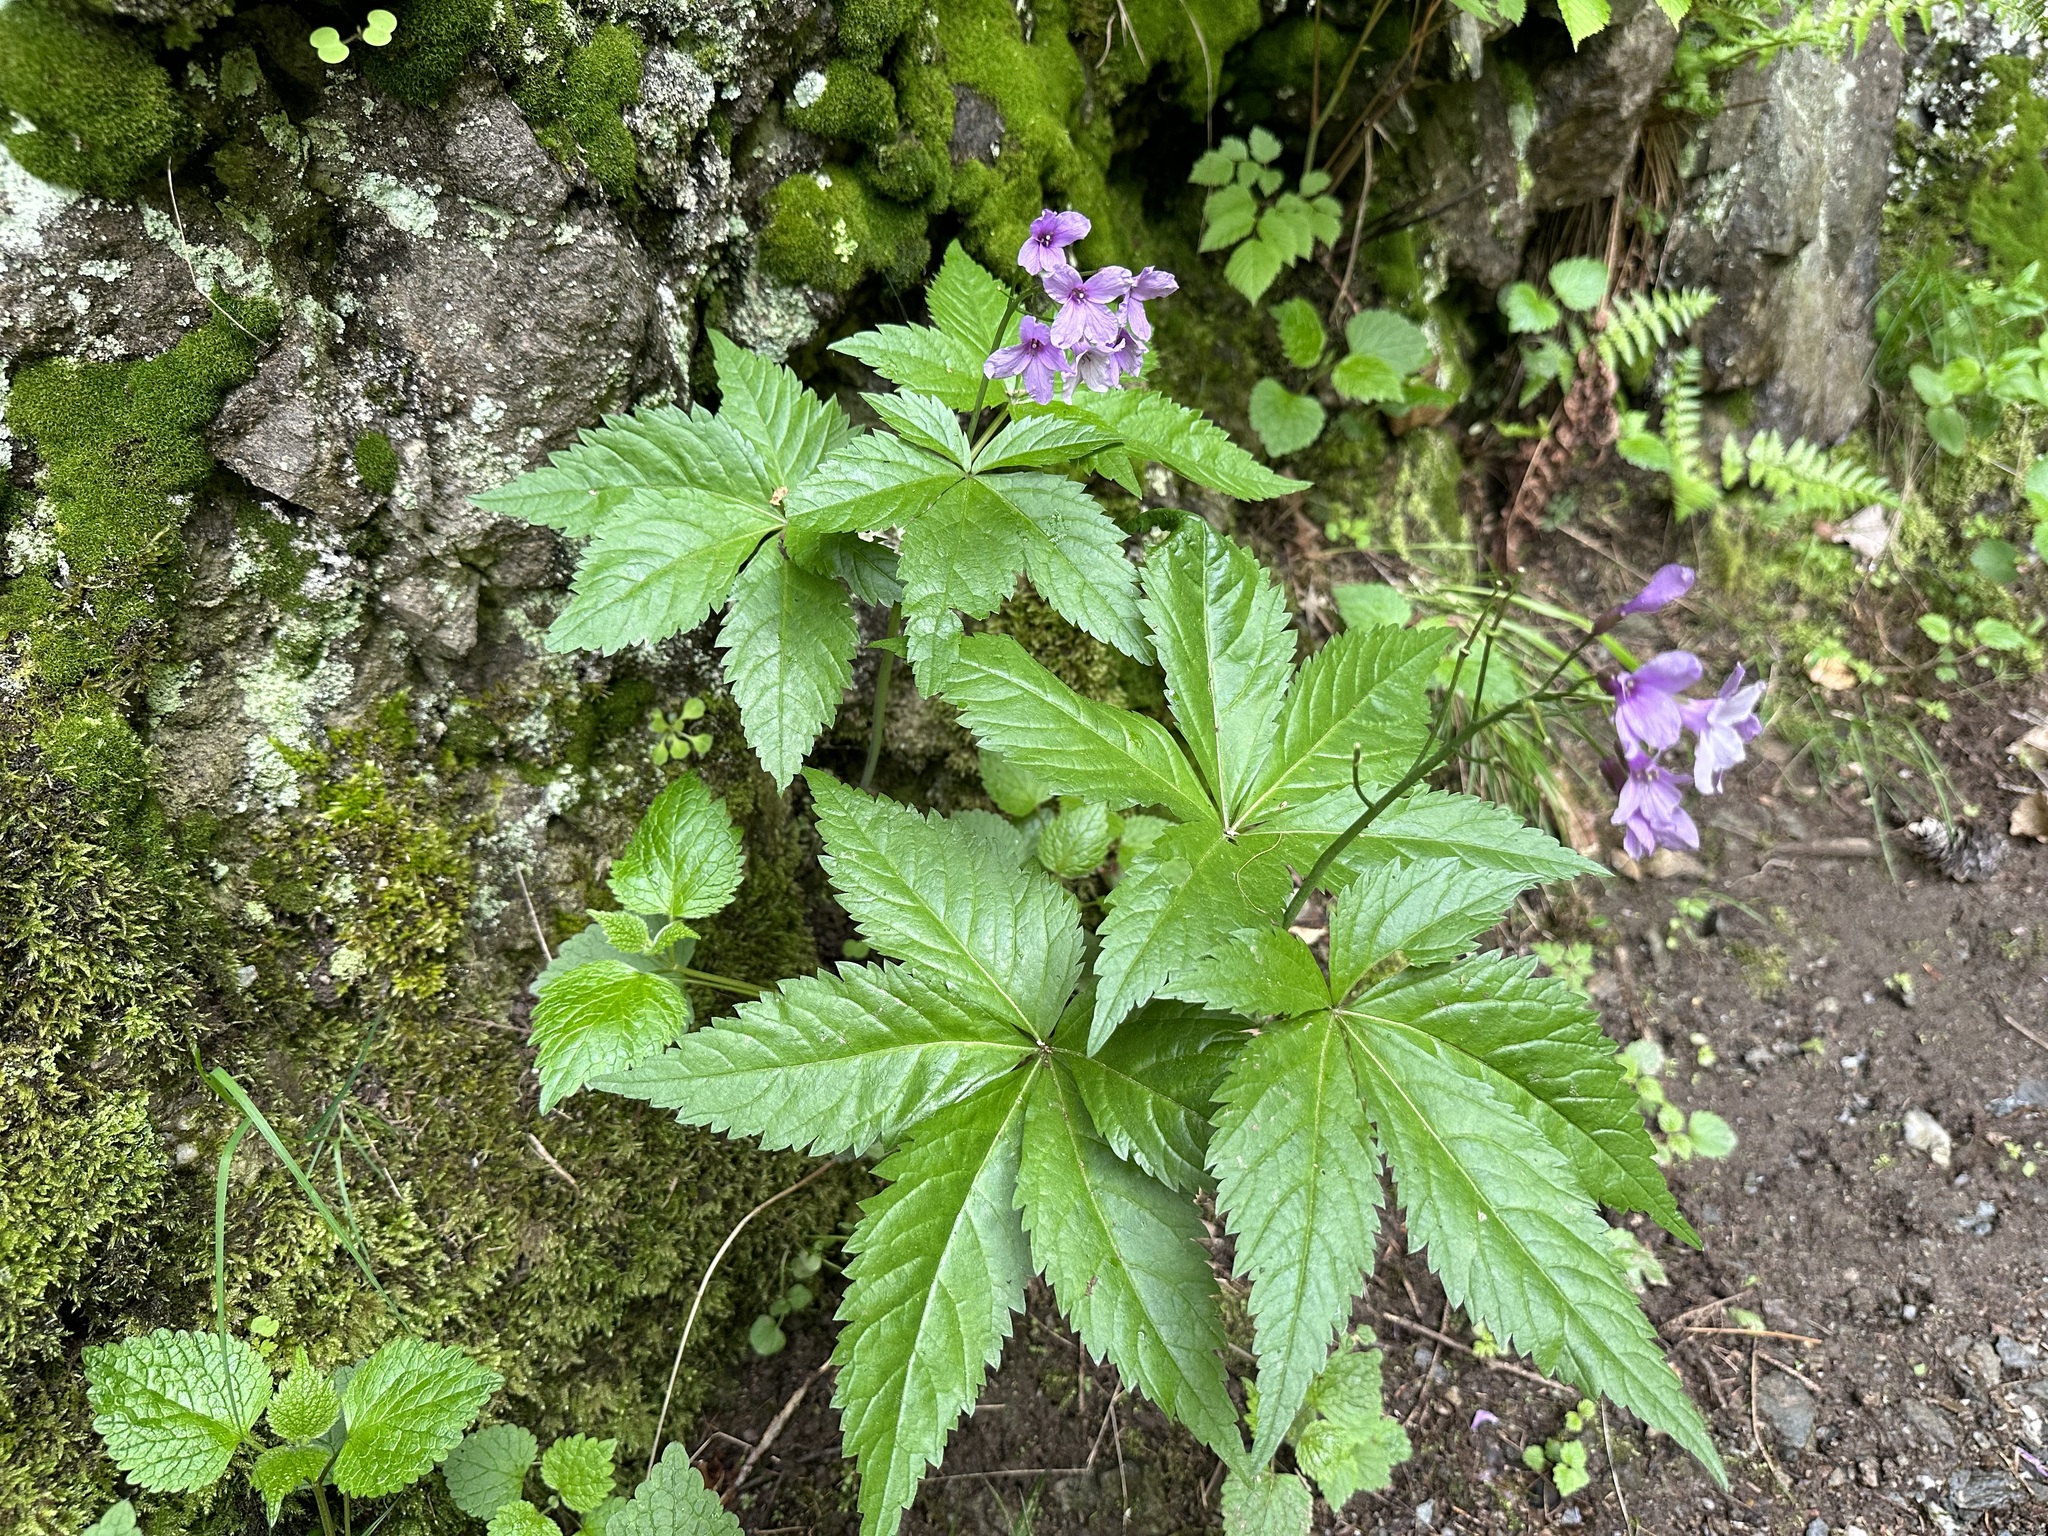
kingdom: Plantae
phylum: Tracheophyta
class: Magnoliopsida
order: Brassicales
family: Brassicaceae
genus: Cardamine
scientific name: Cardamine pentaphyllos
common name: Five-leaflet bitter-cress
